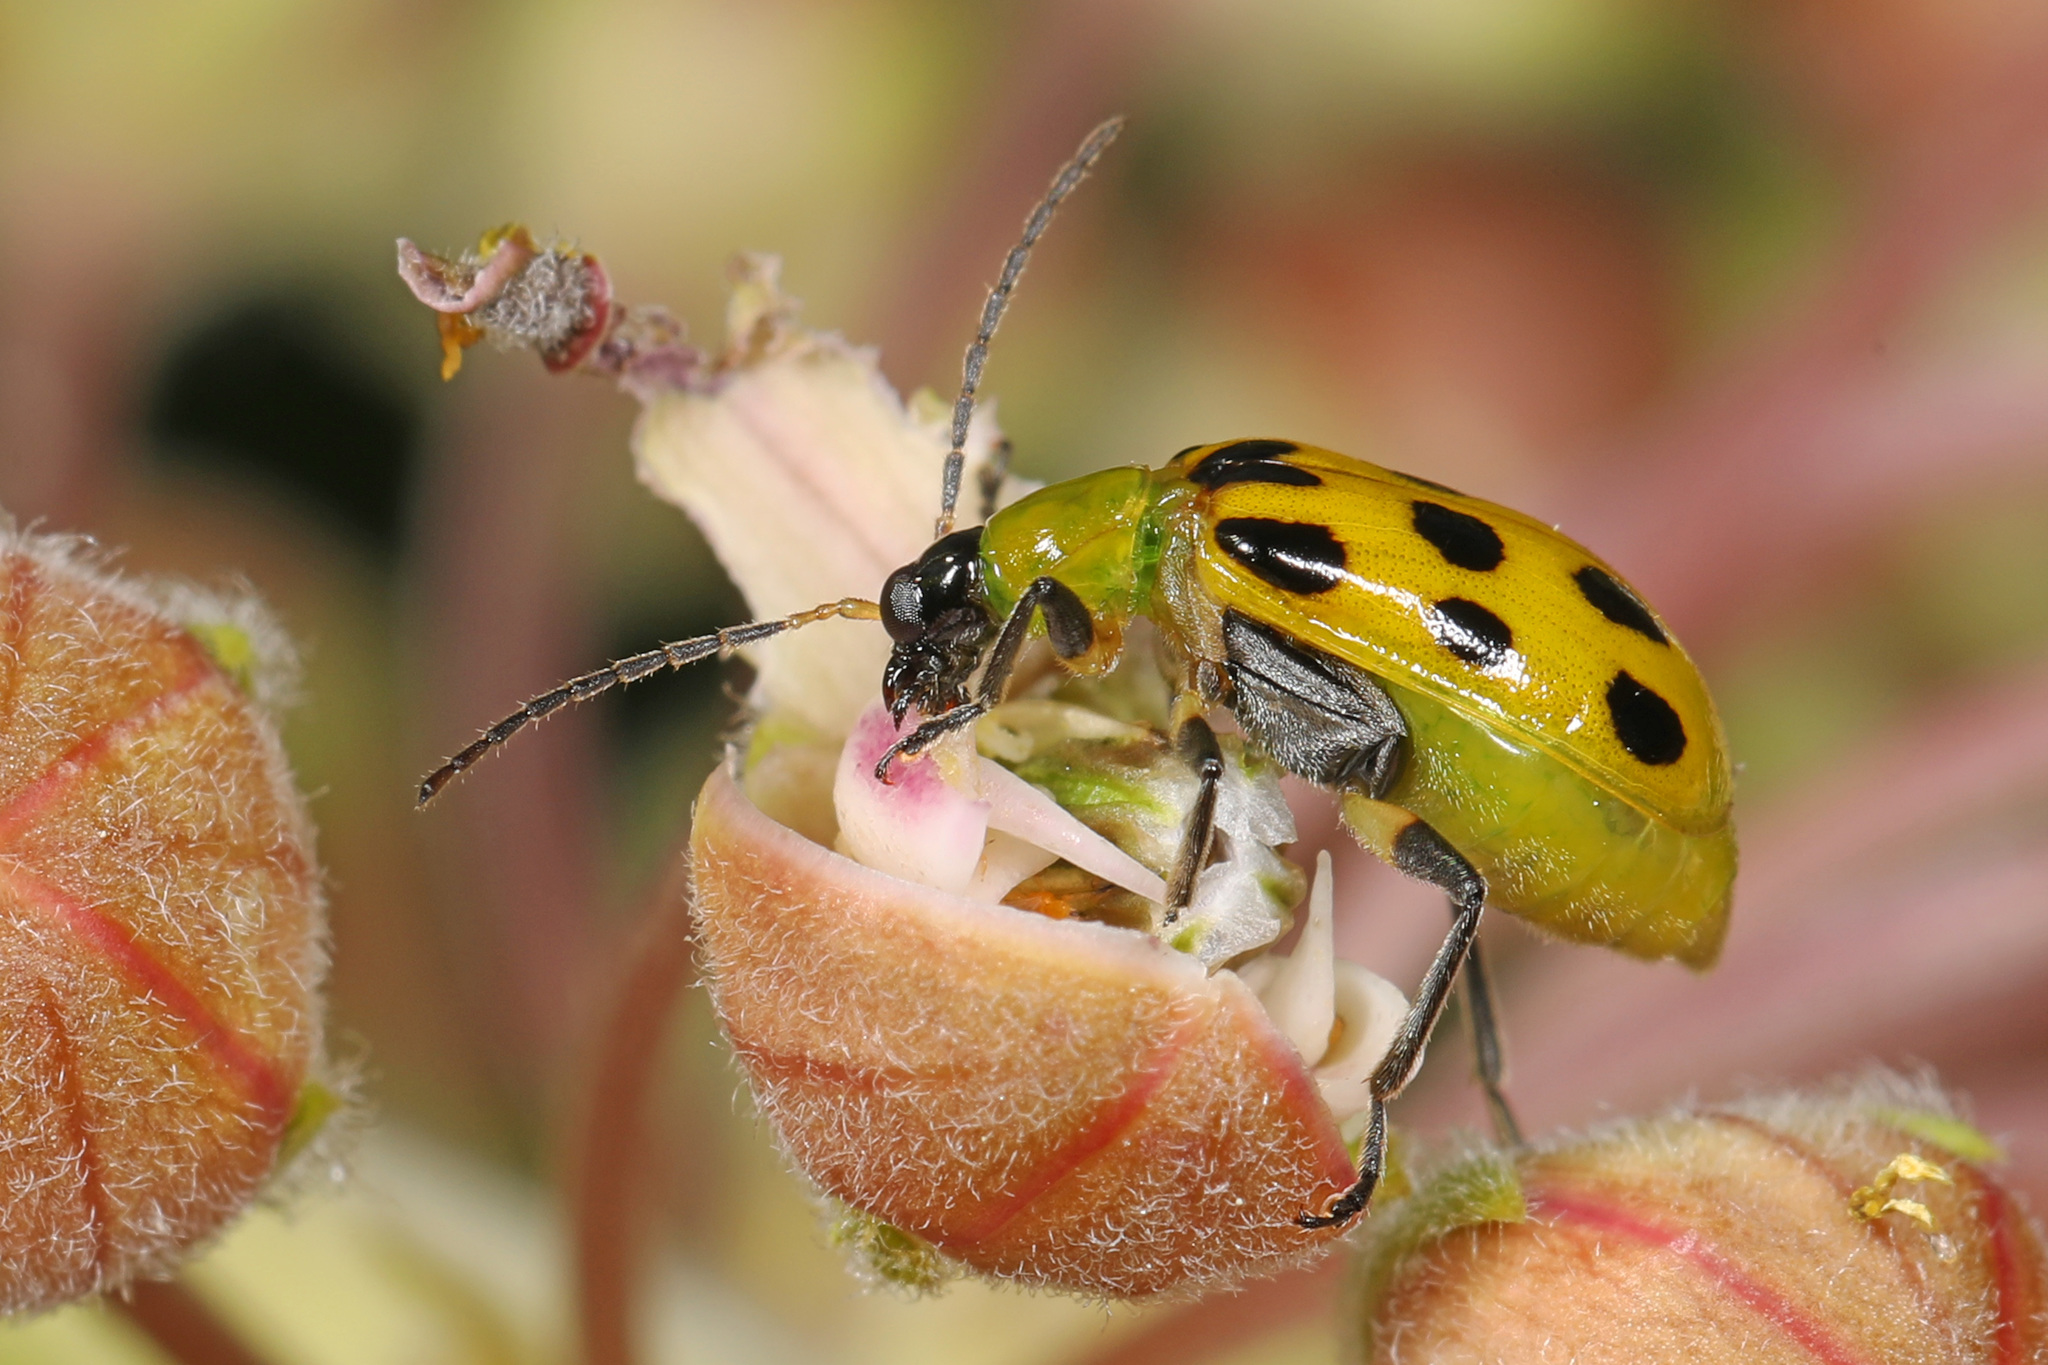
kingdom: Animalia
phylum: Arthropoda
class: Insecta
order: Coleoptera
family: Chrysomelidae
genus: Diabrotica
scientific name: Diabrotica undecimpunctata
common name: Spotted cucumber beetle
